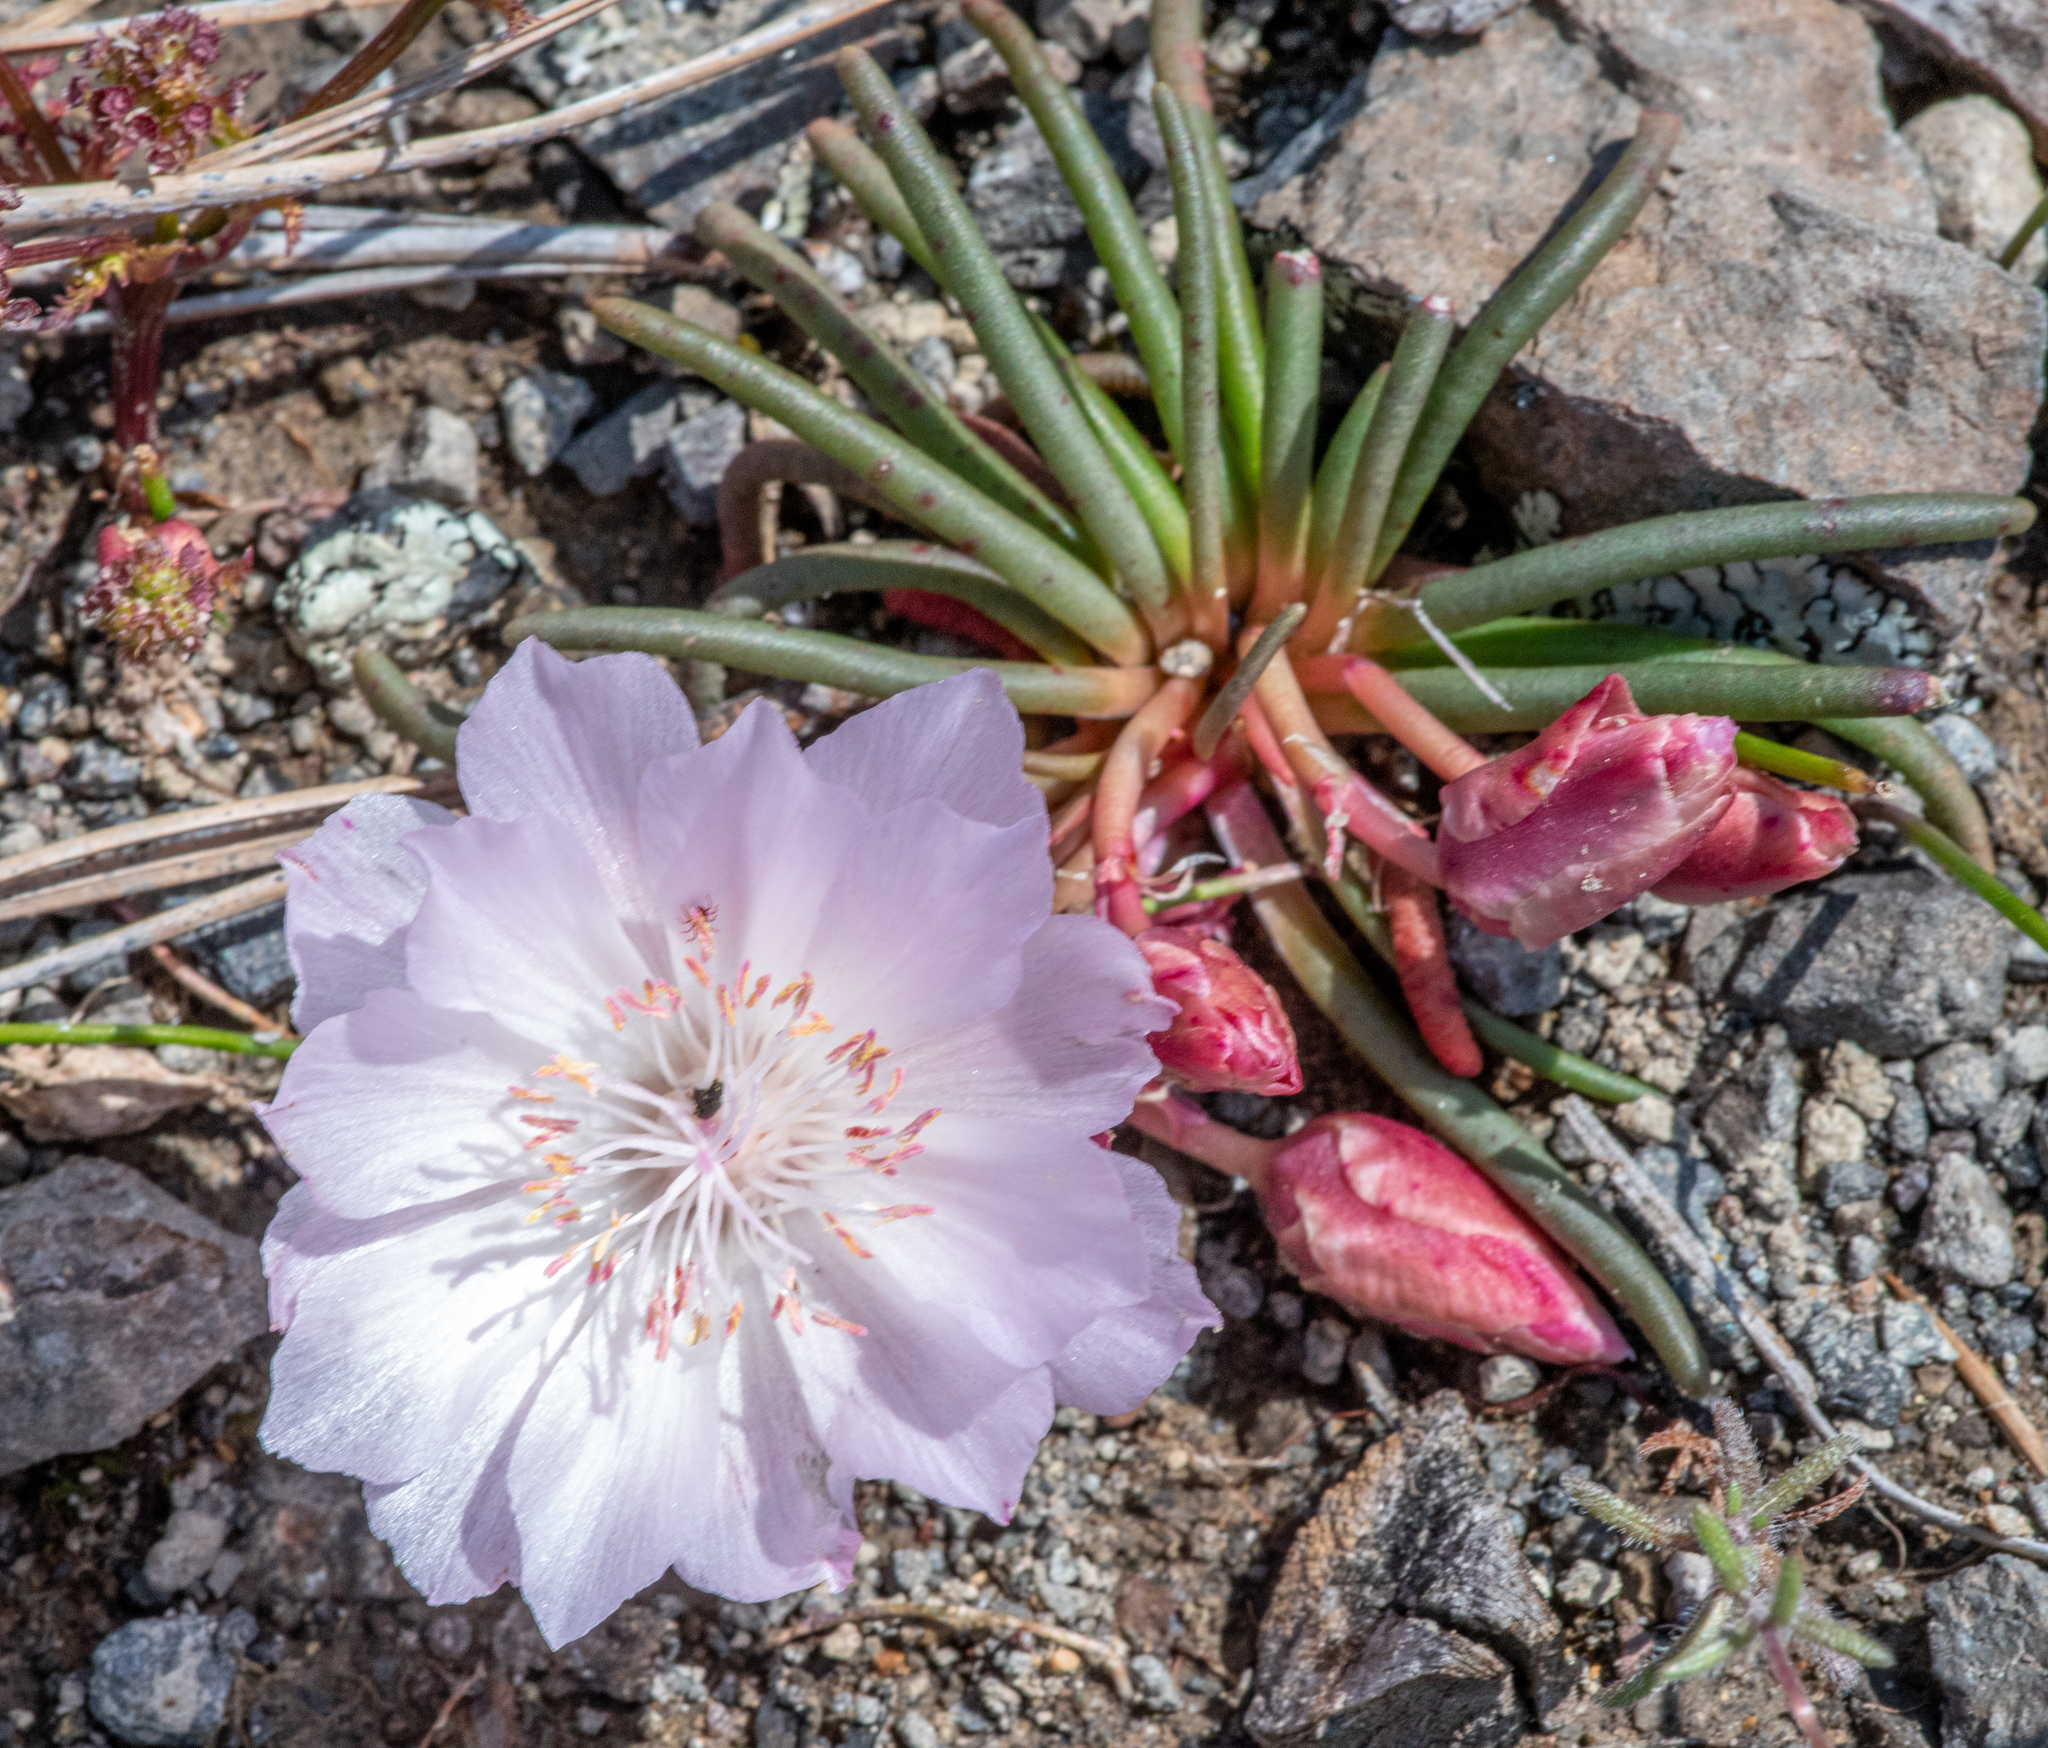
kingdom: Plantae
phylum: Tracheophyta
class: Magnoliopsida
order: Caryophyllales
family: Montiaceae
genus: Lewisia
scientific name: Lewisia rediviva
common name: Bitter-root
